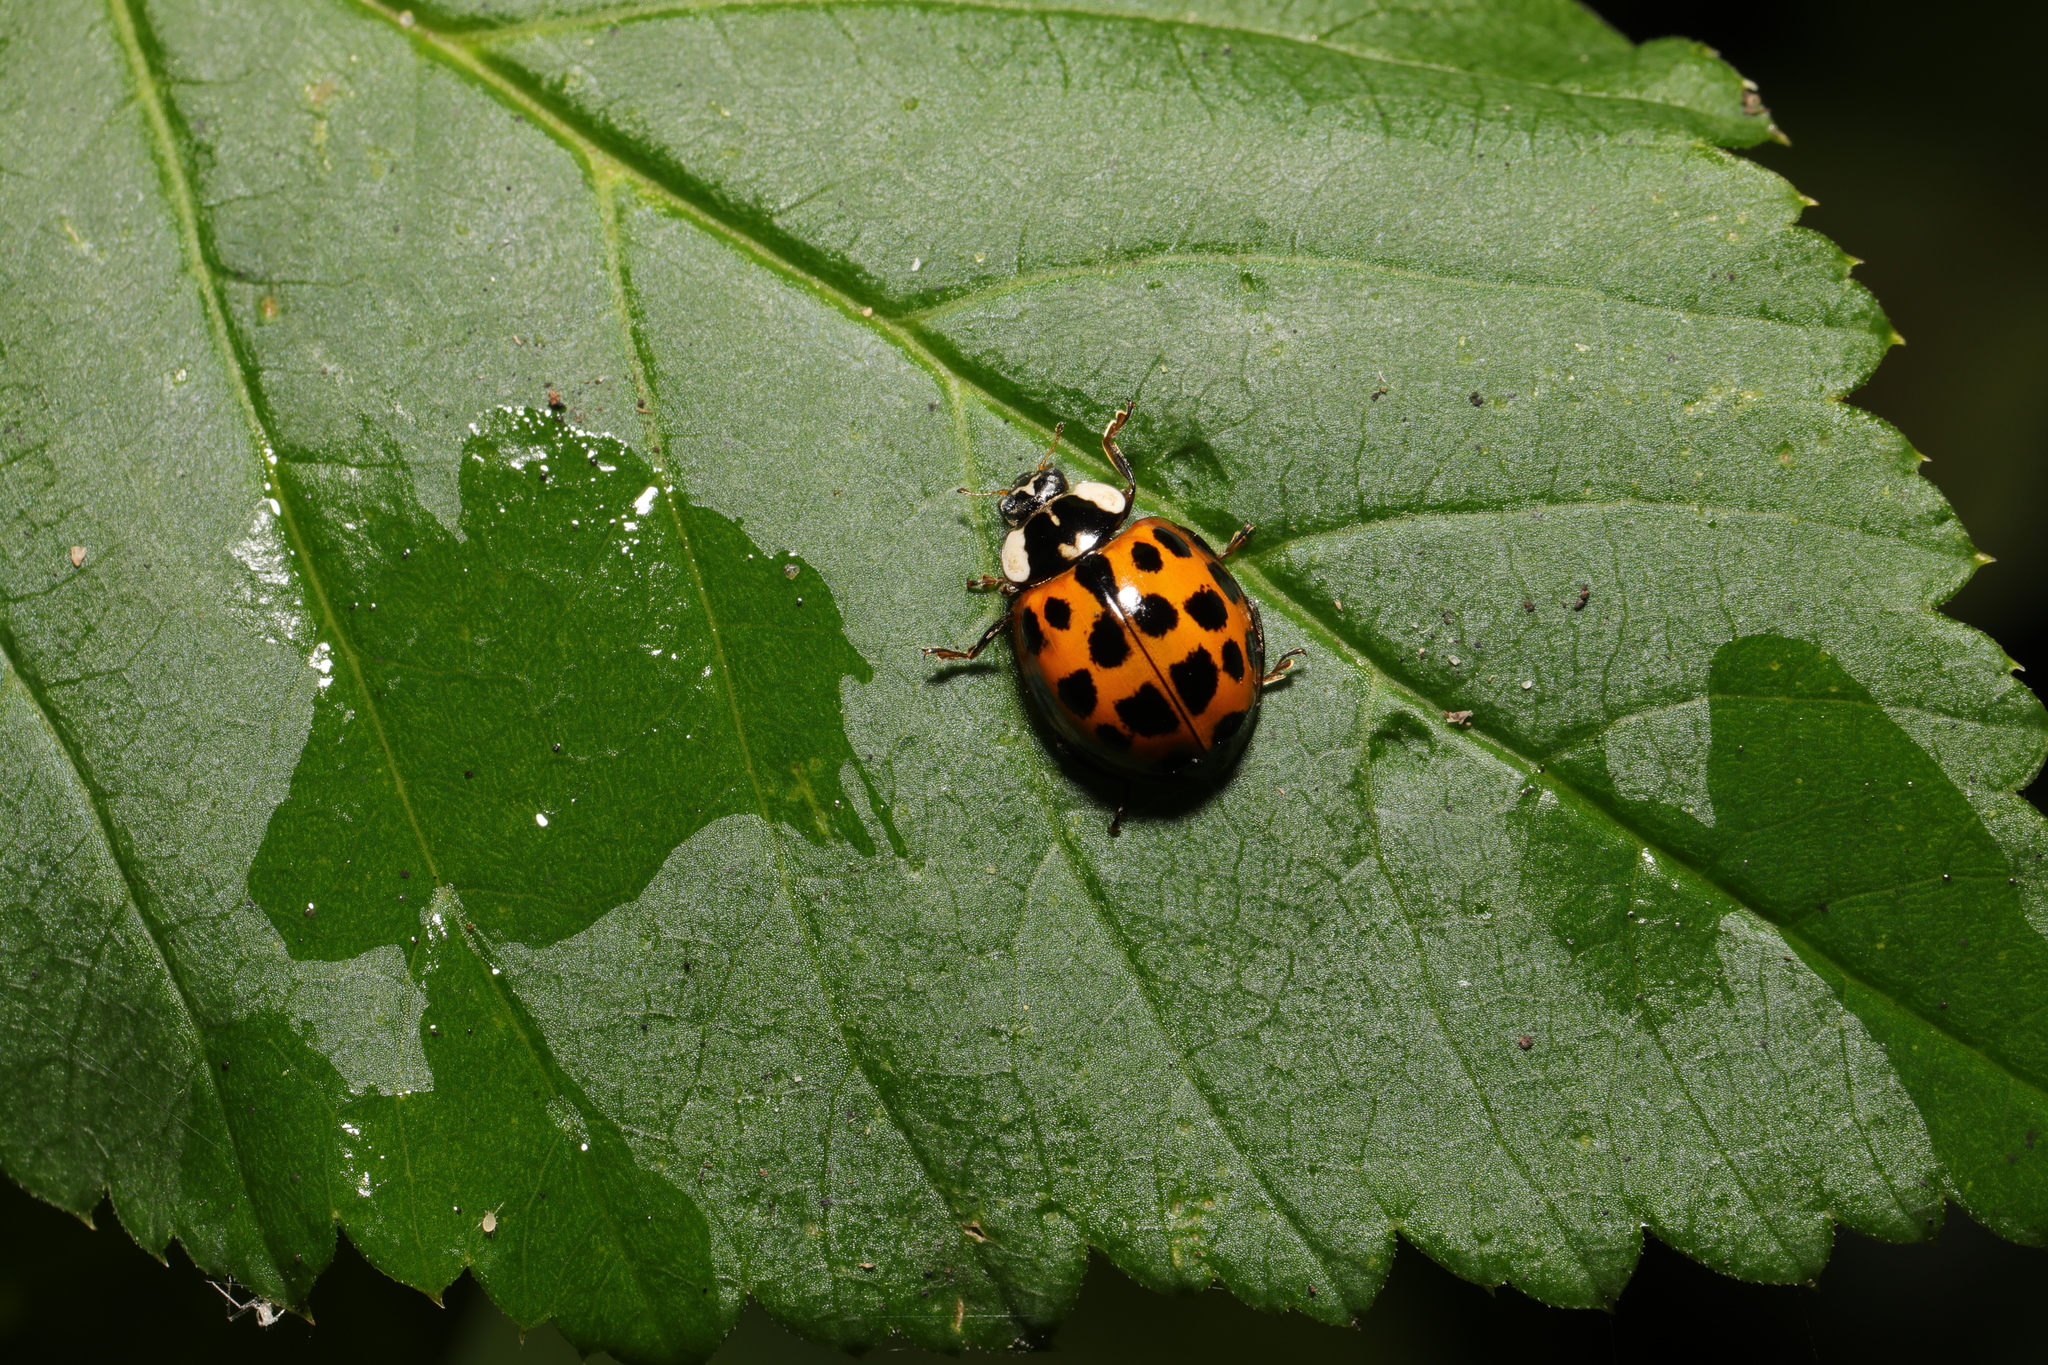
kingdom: Animalia
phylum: Arthropoda
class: Insecta
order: Coleoptera
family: Coccinellidae
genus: Harmonia
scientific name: Harmonia axyridis
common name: Harlequin ladybird
